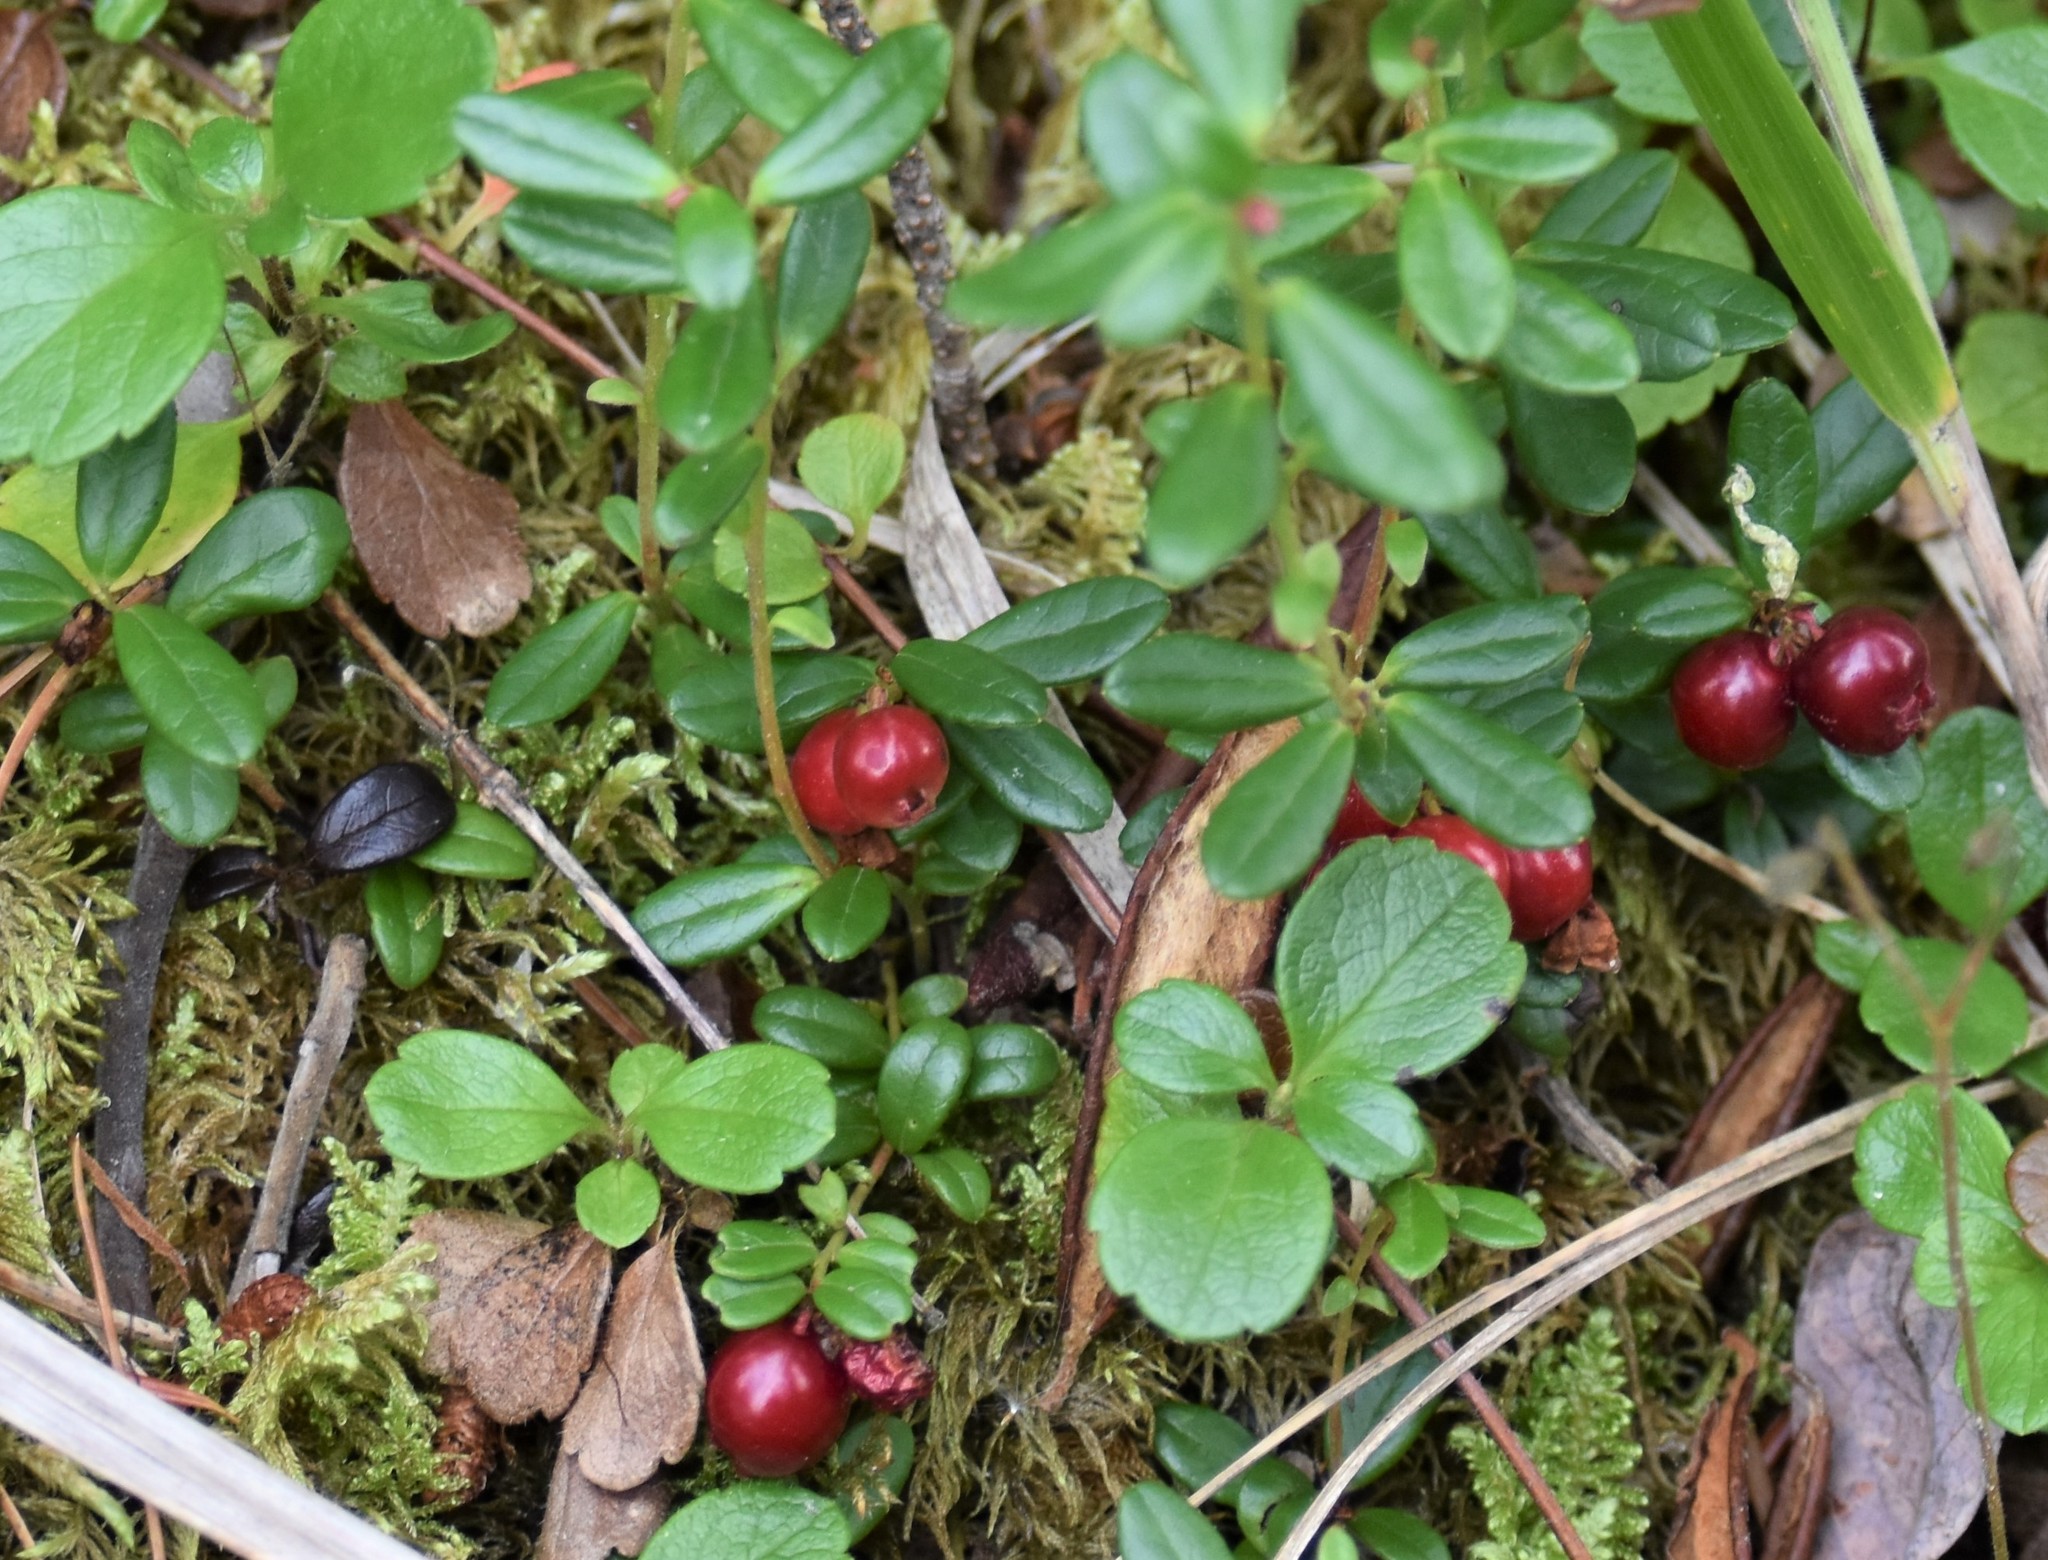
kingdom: Plantae
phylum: Tracheophyta
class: Magnoliopsida
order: Ericales
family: Ericaceae
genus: Vaccinium
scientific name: Vaccinium vitis-idaea
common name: Cowberry
